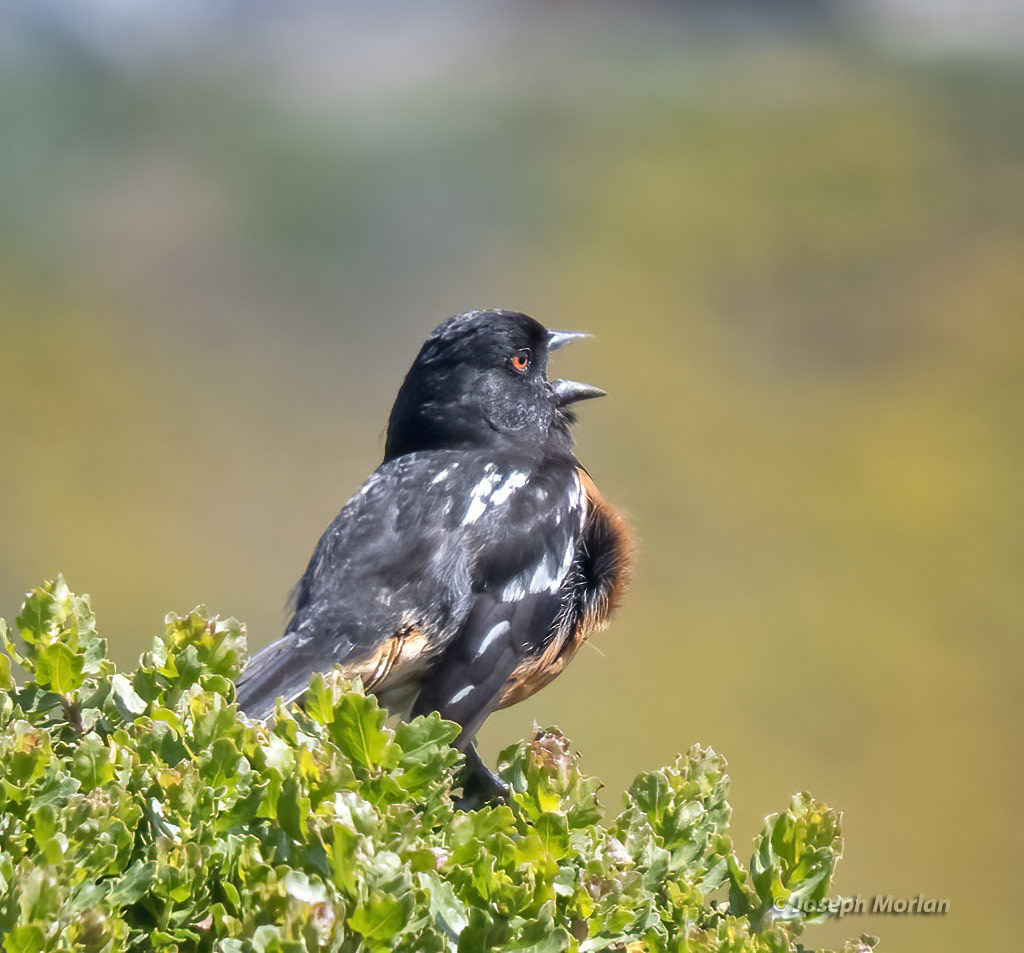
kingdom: Animalia
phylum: Chordata
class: Aves
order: Passeriformes
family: Passerellidae
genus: Pipilo
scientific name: Pipilo maculatus
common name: Spotted towhee
